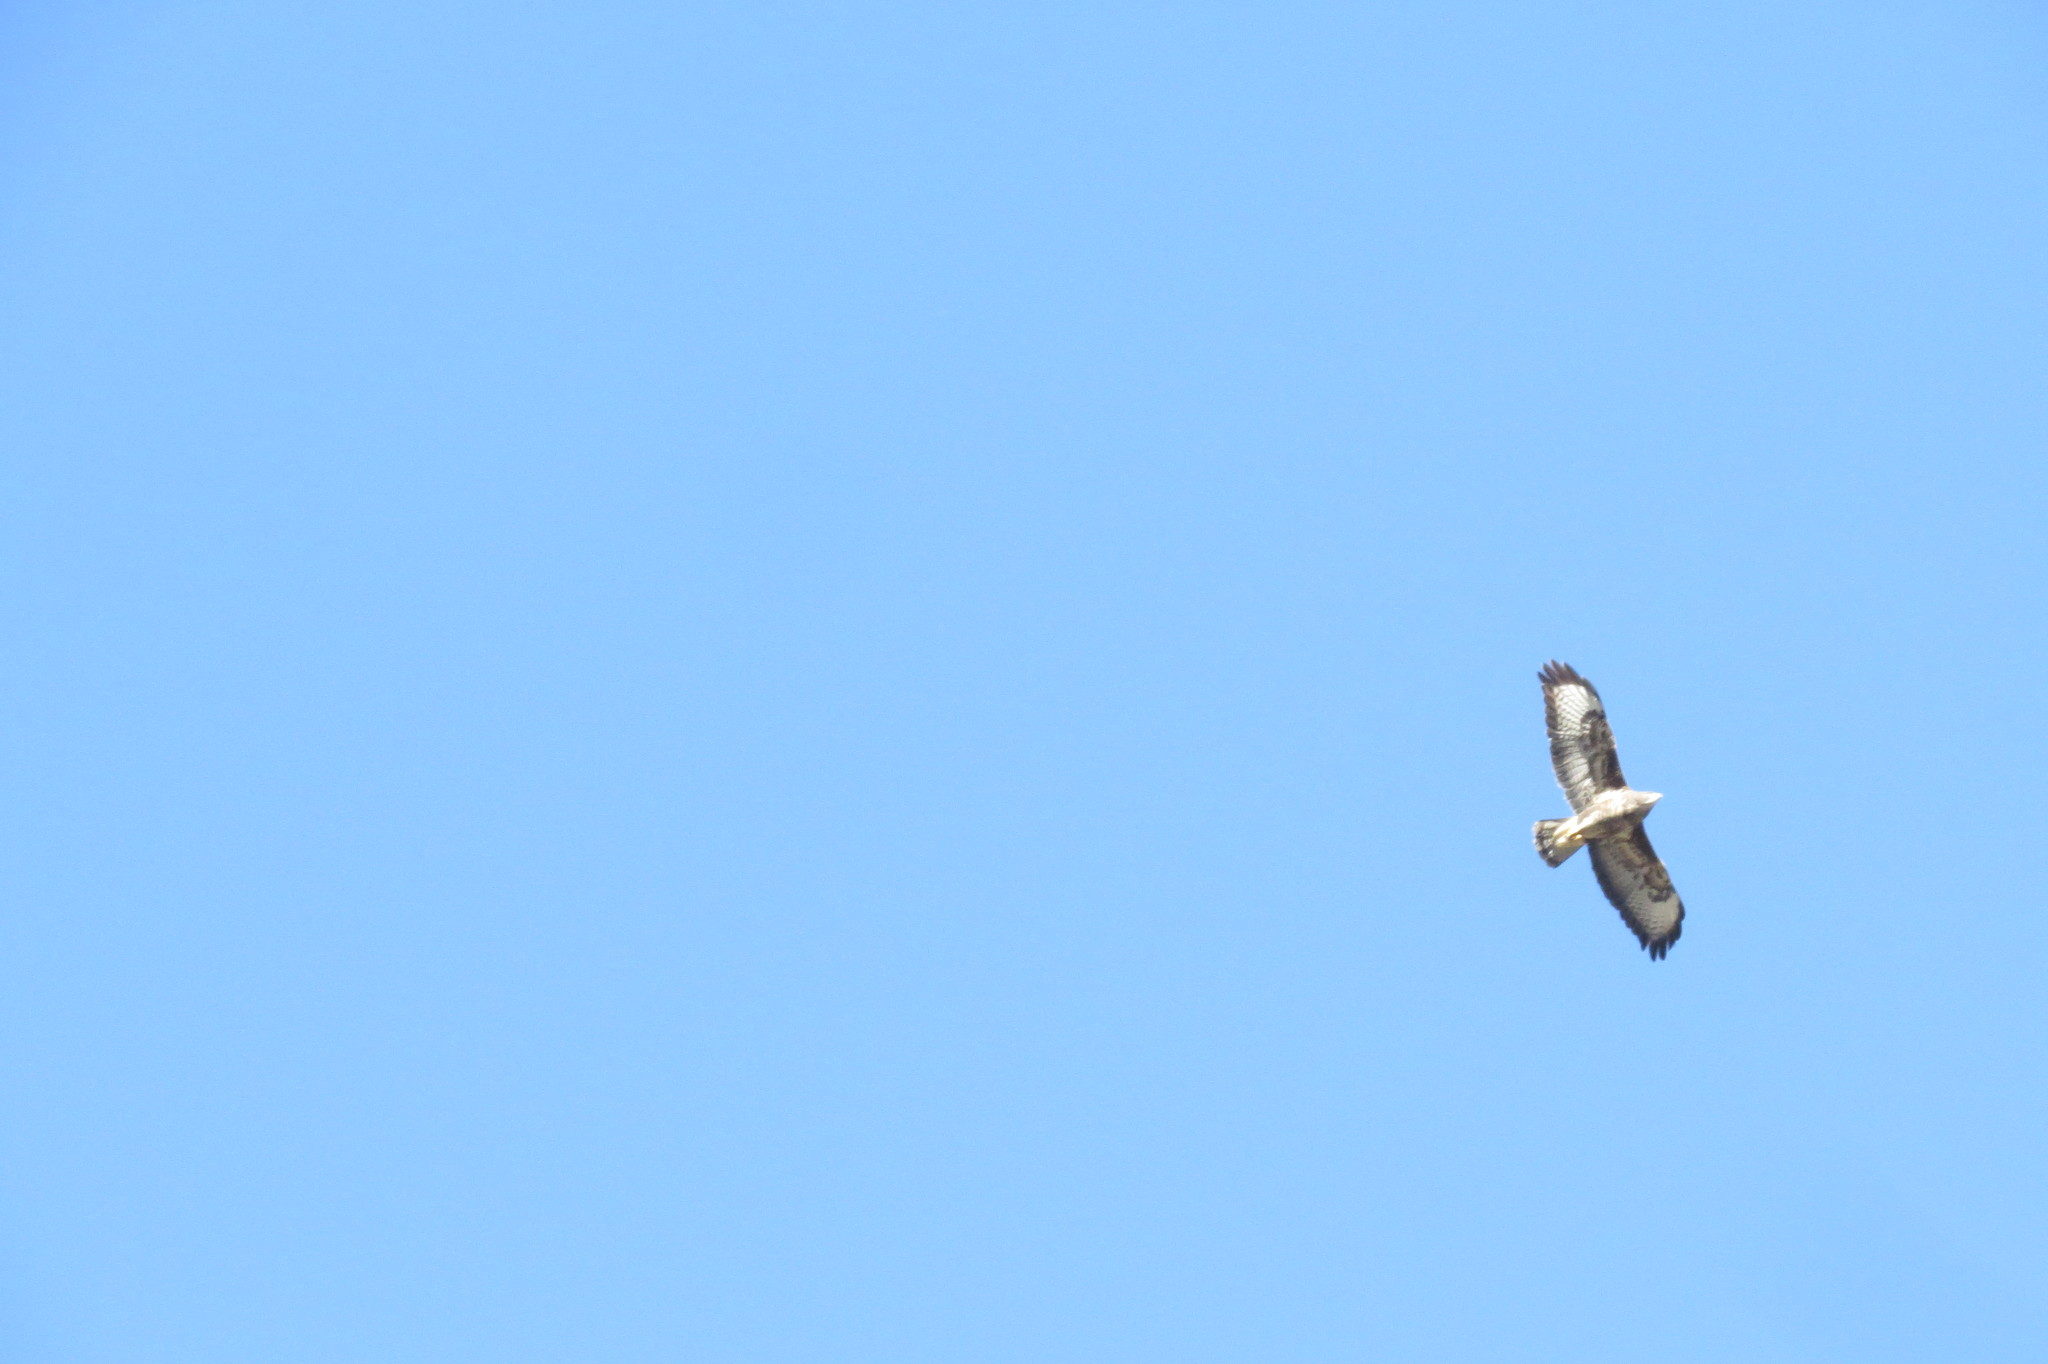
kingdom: Animalia
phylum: Chordata
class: Aves
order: Accipitriformes
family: Accipitridae
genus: Buteo
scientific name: Buteo buteo
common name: Common buzzard
